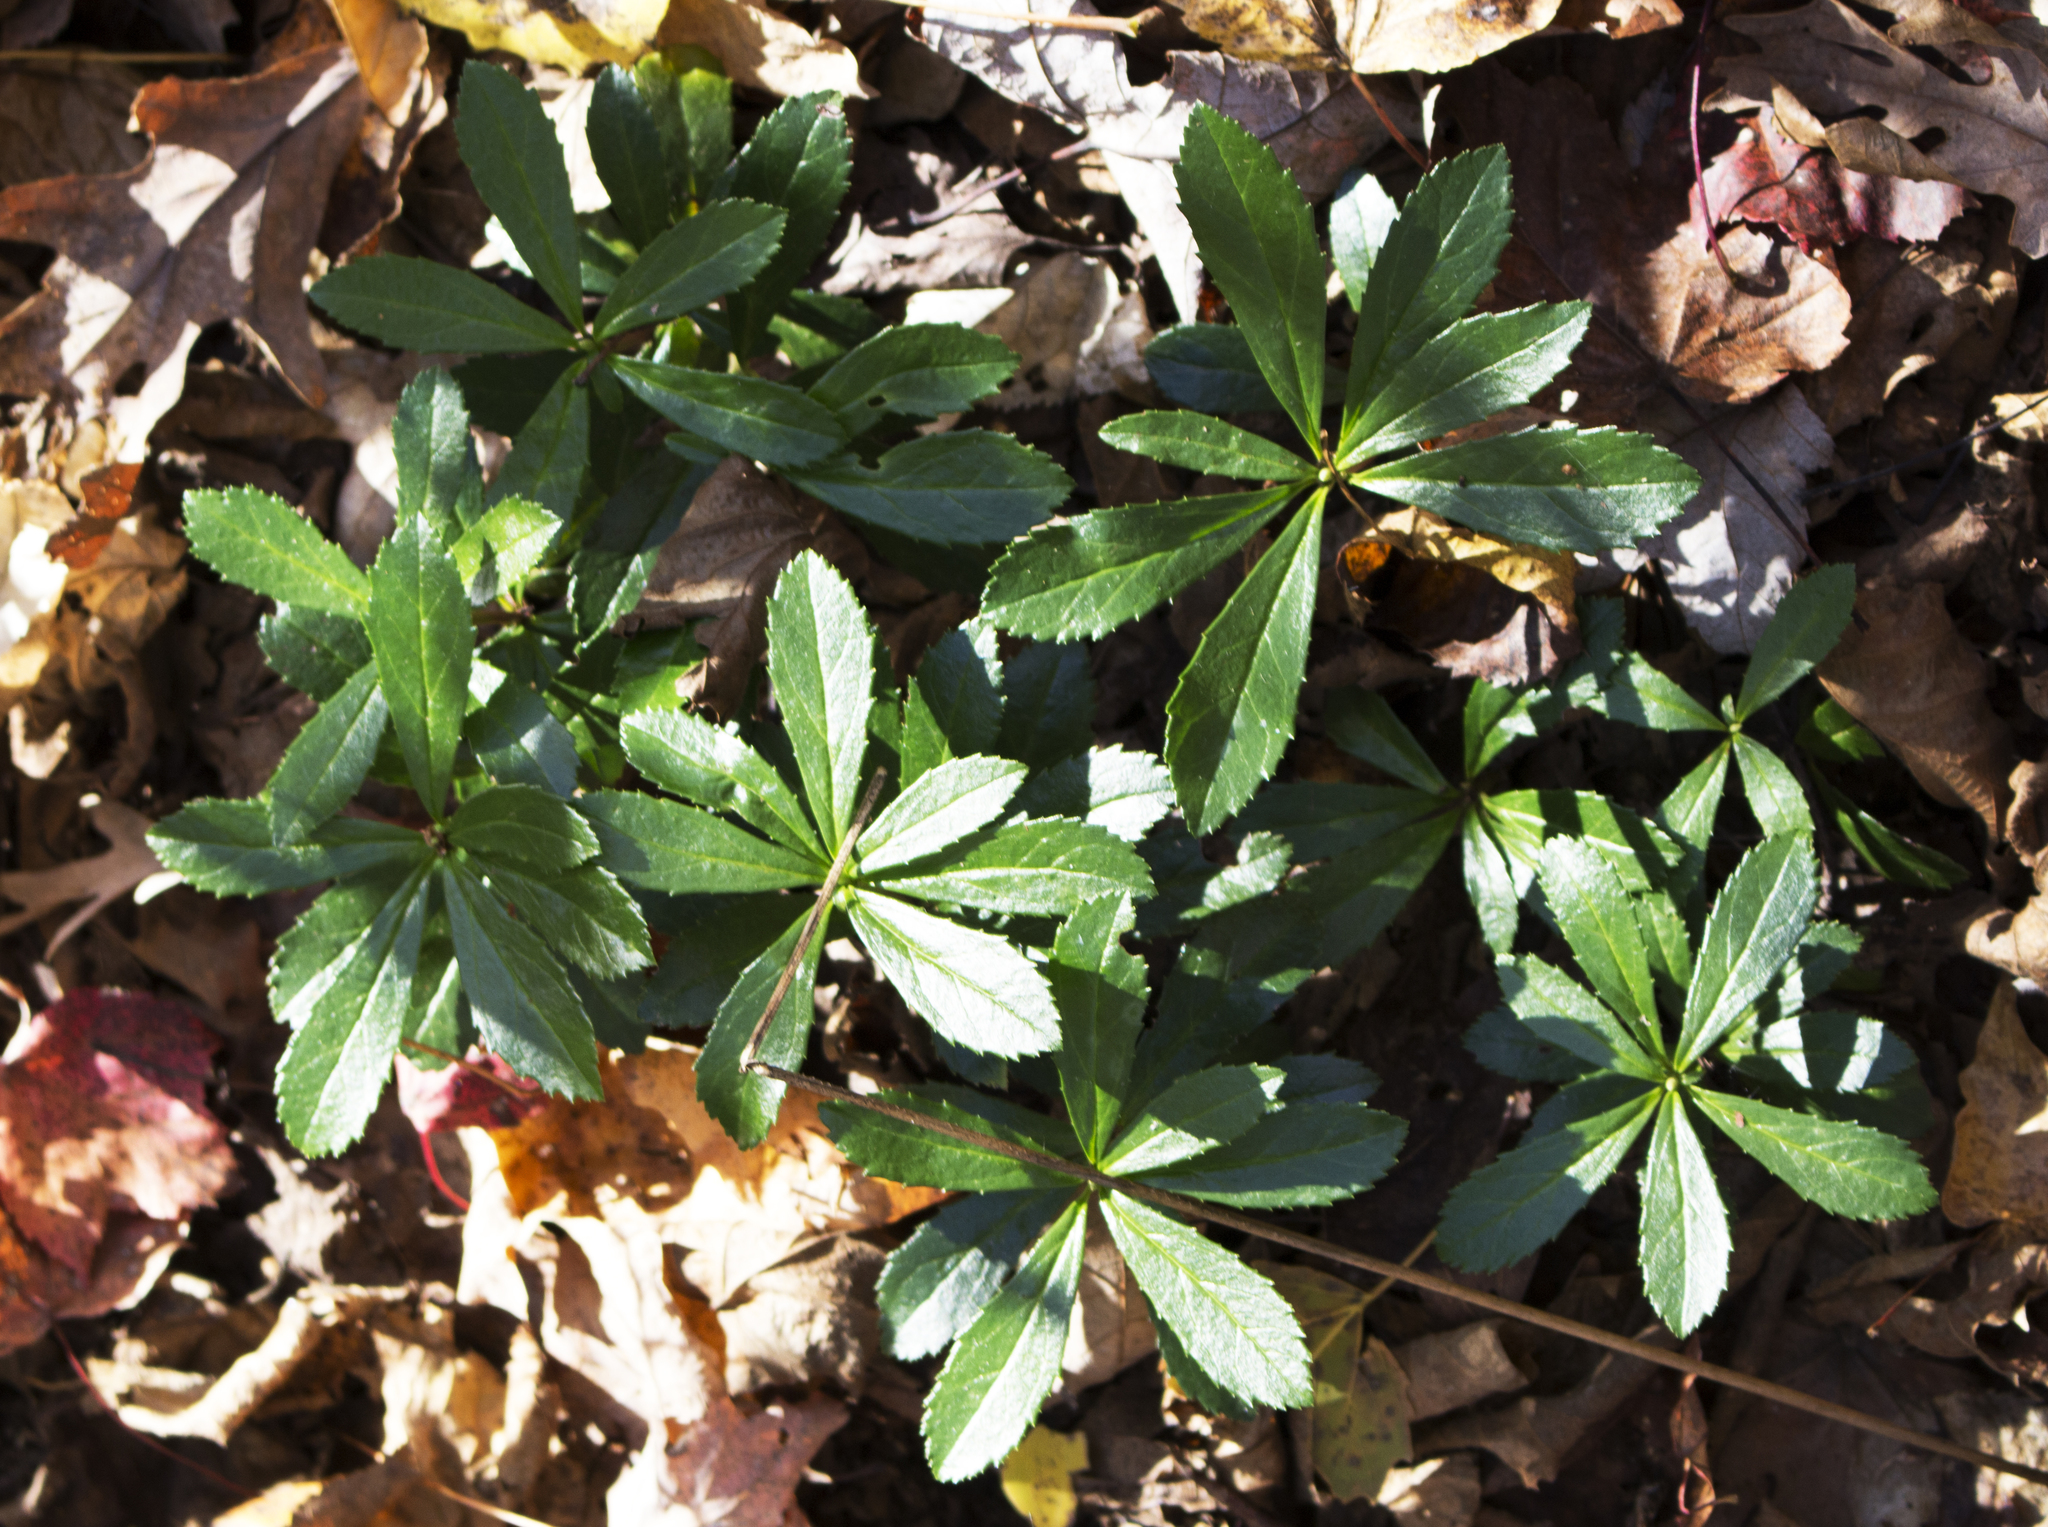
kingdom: Plantae
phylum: Tracheophyta
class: Magnoliopsida
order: Ericales
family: Ericaceae
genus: Chimaphila
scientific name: Chimaphila umbellata
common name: Pipsissewa
